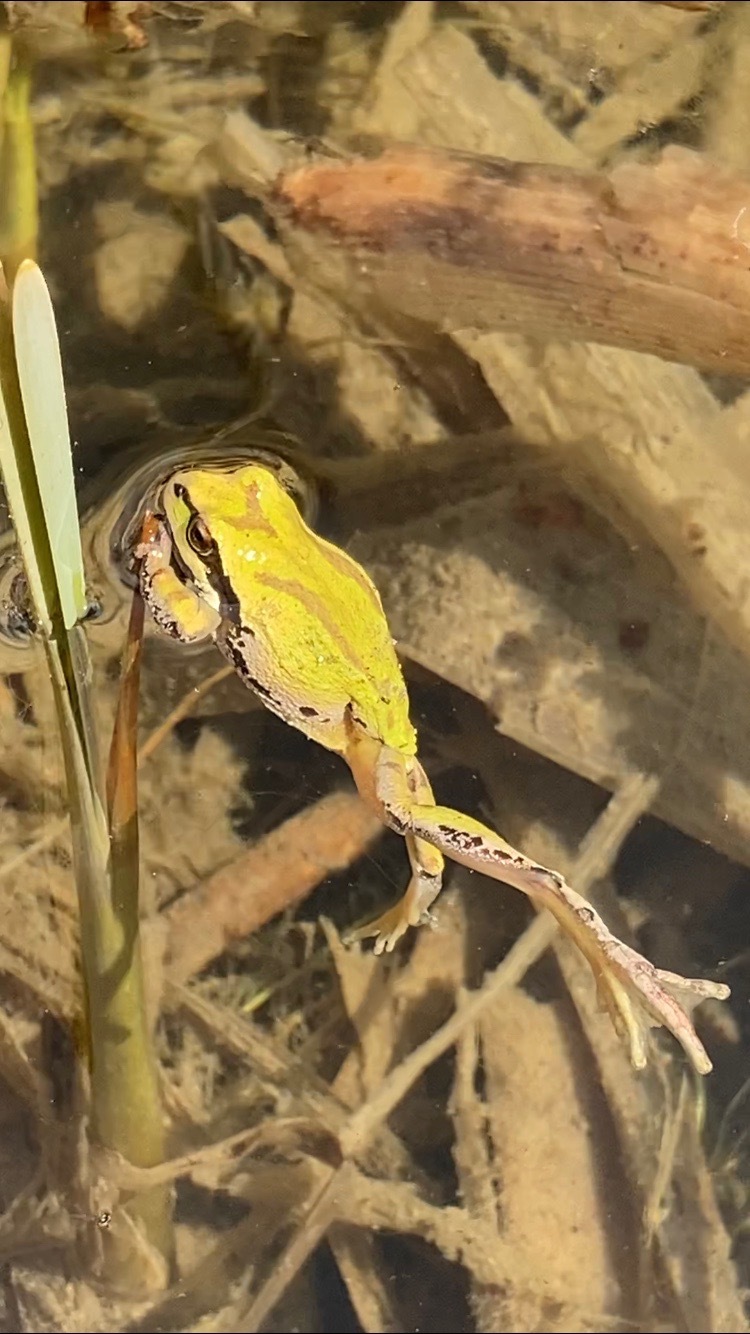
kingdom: Animalia
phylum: Chordata
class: Amphibia
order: Anura
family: Hylidae
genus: Pseudacris
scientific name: Pseudacris regilla
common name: Pacific chorus frog
